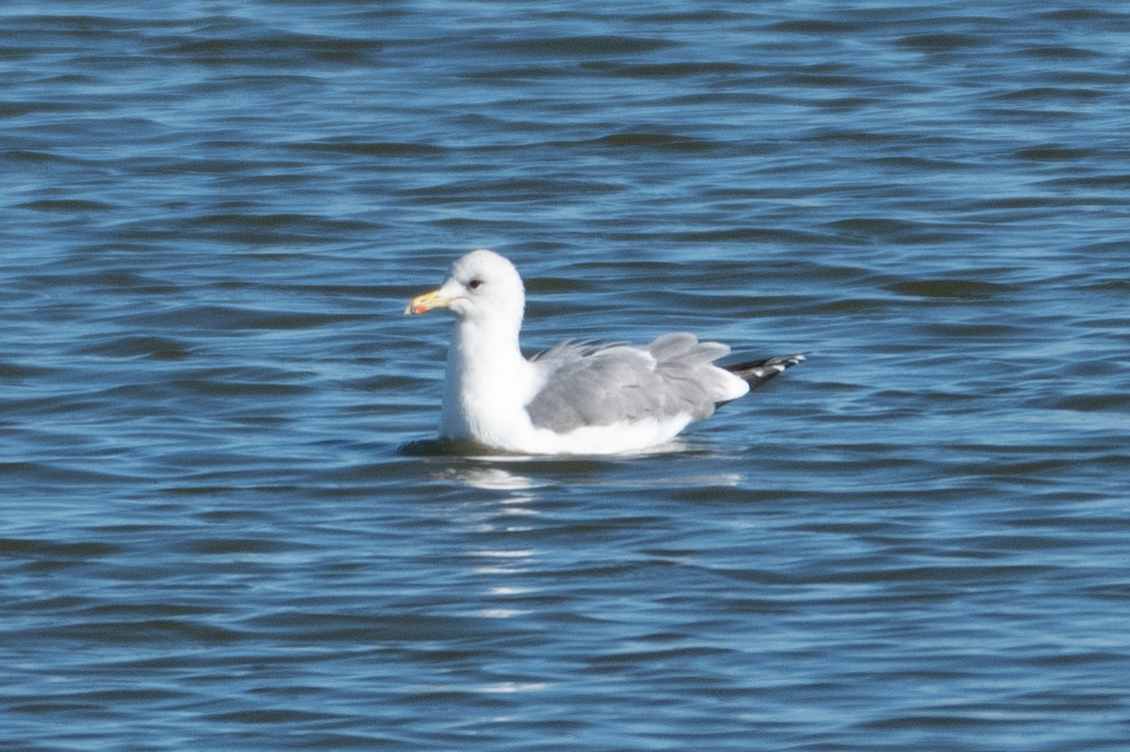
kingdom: Animalia
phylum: Chordata
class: Aves
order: Charadriiformes
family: Laridae
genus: Larus
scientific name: Larus californicus
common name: California gull
